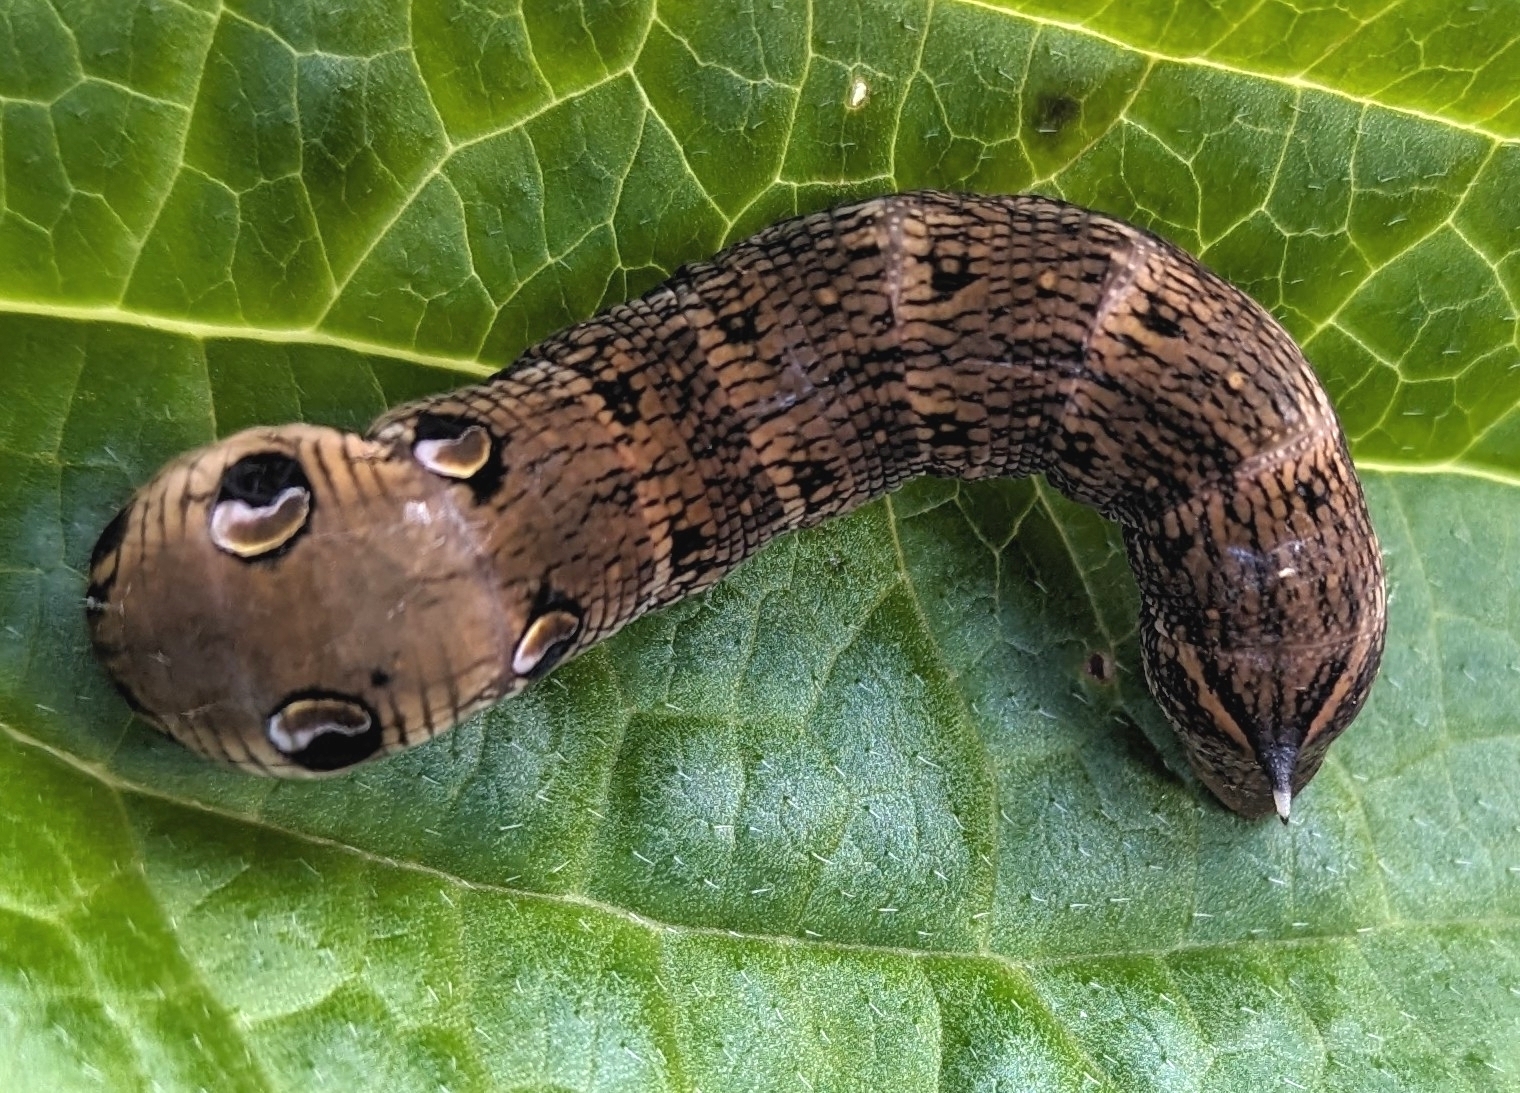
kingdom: Animalia
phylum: Arthropoda
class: Insecta
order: Lepidoptera
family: Sphingidae
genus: Deilephila
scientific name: Deilephila elpenor
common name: Elephant hawk-moth
